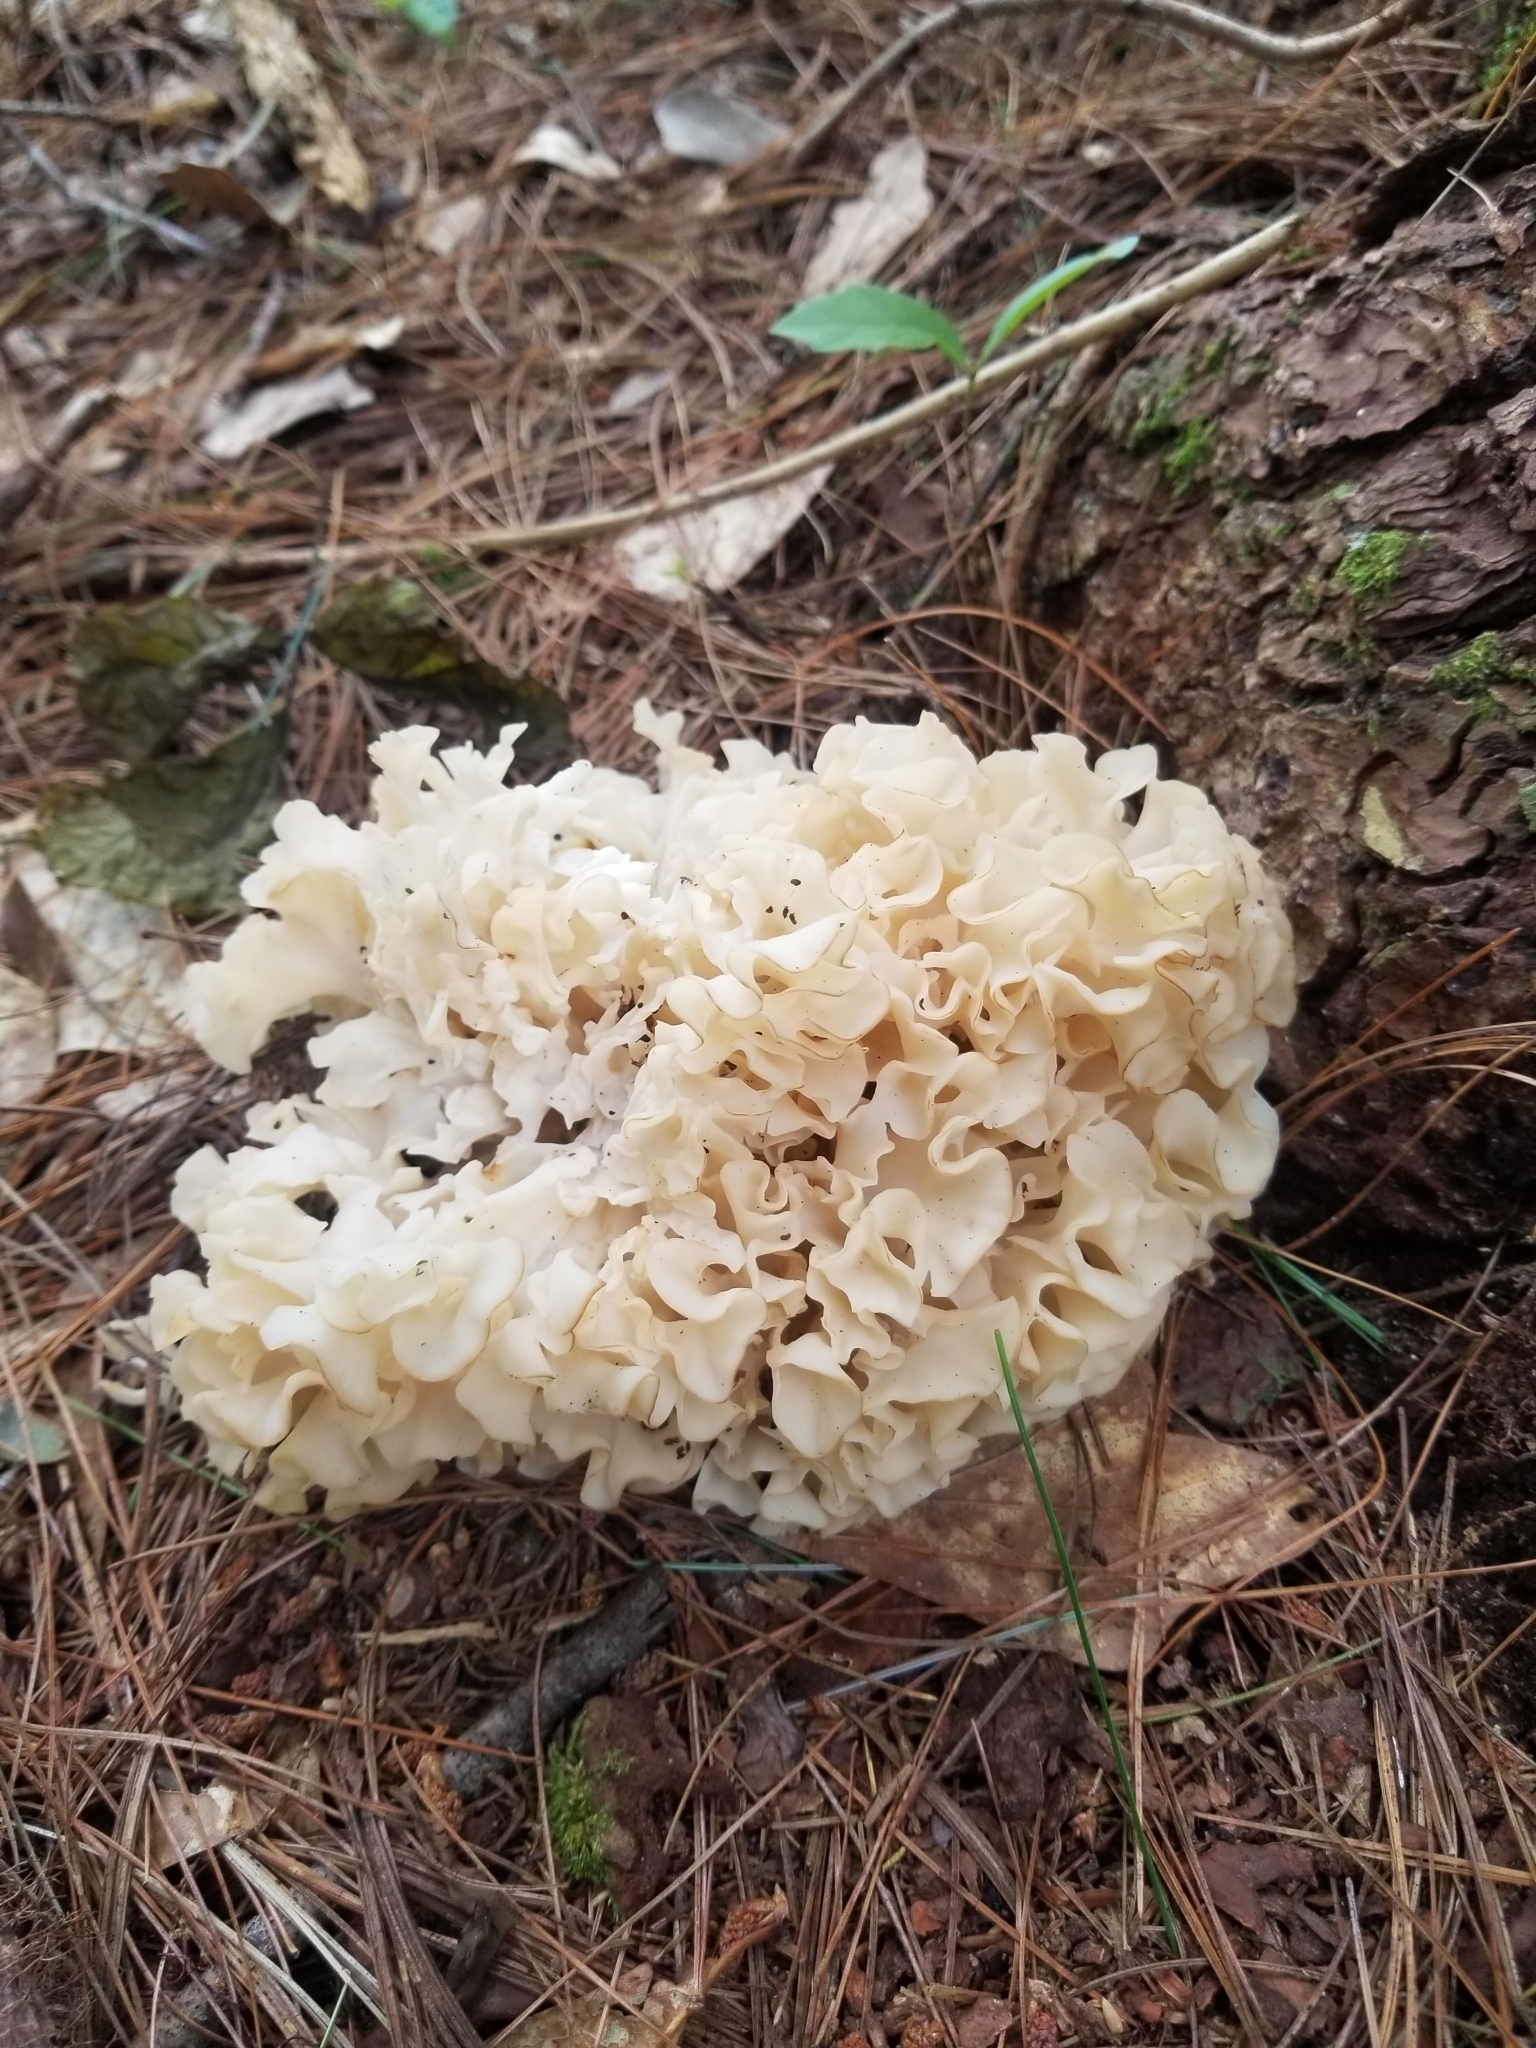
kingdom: Fungi
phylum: Basidiomycota
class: Agaricomycetes
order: Polyporales
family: Sparassidaceae
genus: Sparassis
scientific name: Sparassis americana
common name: American cauliflower mushroom
